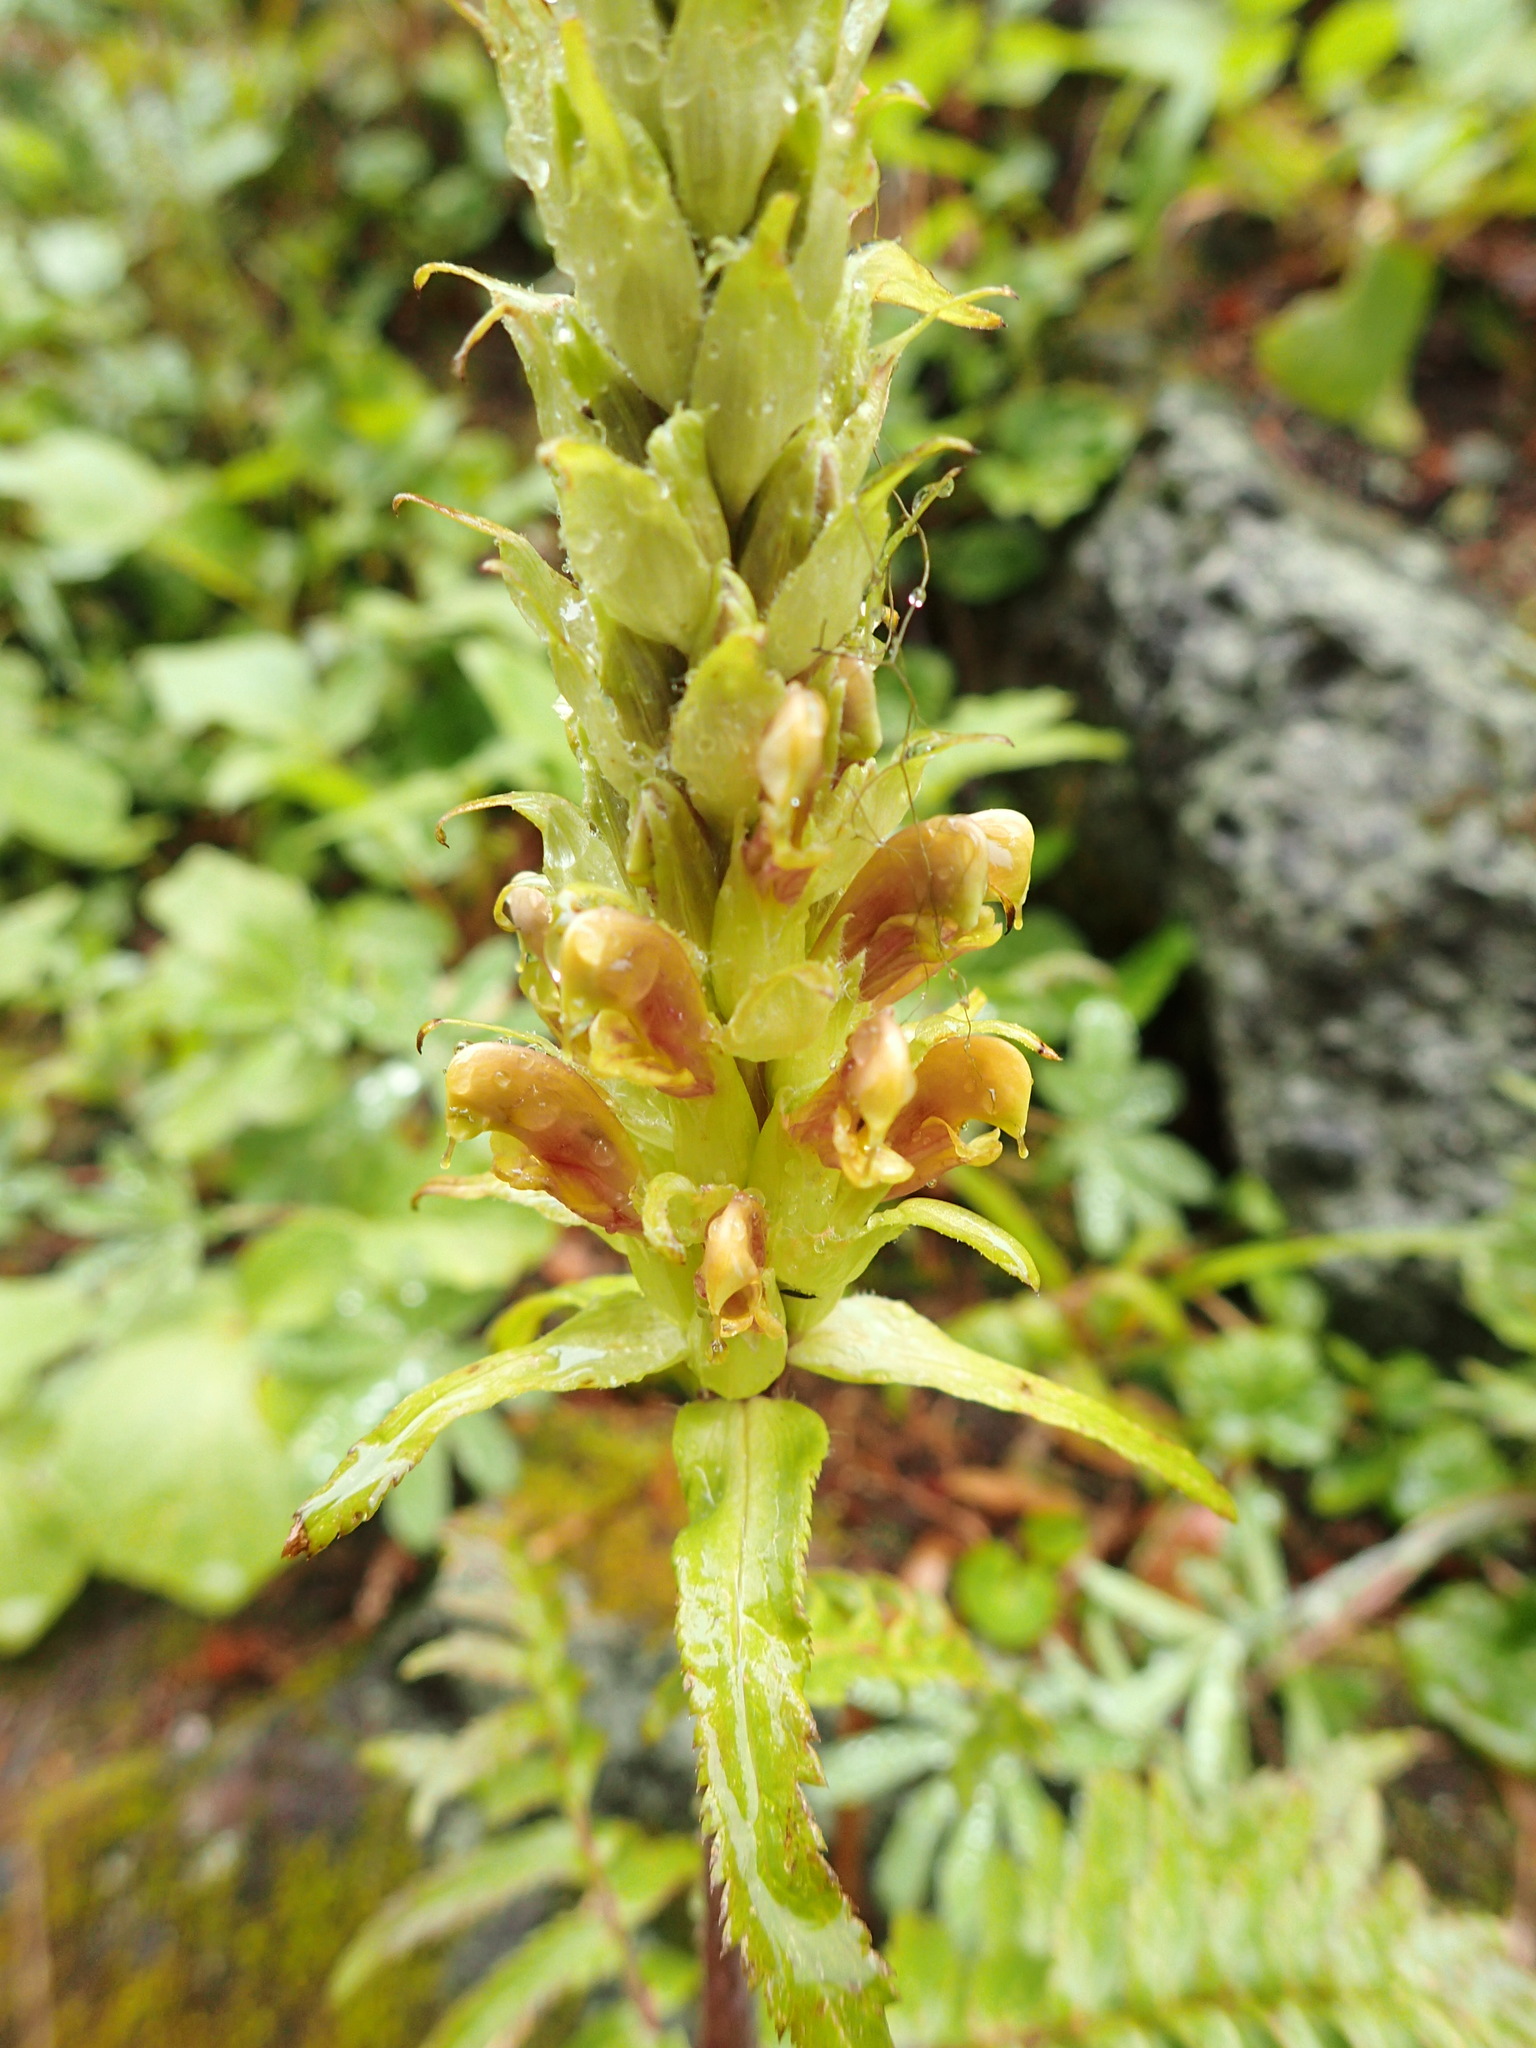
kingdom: Plantae
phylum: Tracheophyta
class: Magnoliopsida
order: Lamiales
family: Orobanchaceae
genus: Pedicularis
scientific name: Pedicularis bracteosa
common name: Bracted lousewort
